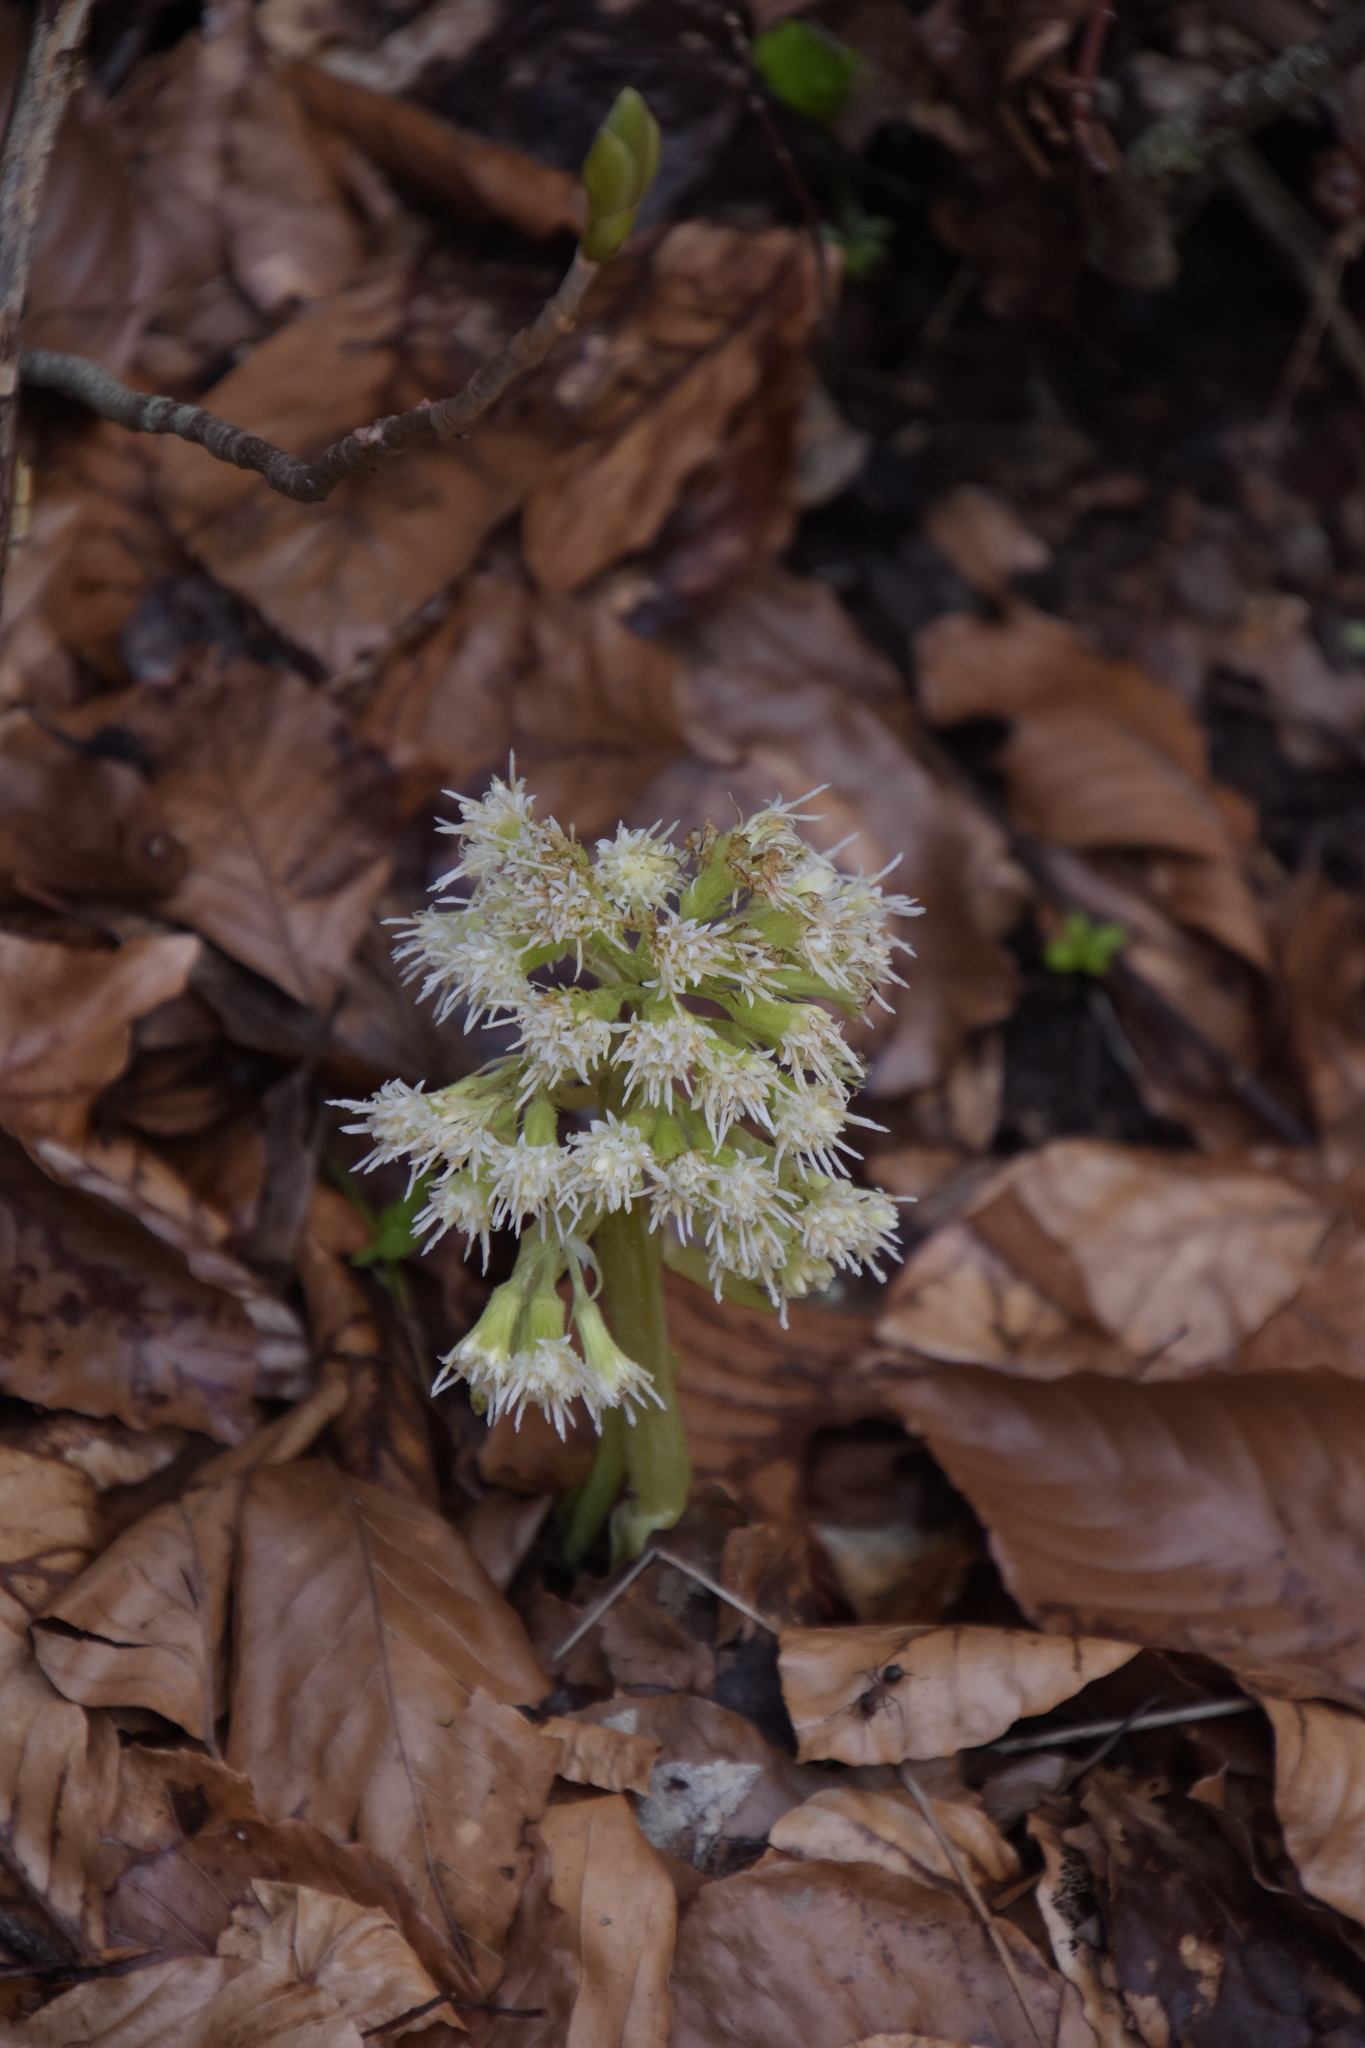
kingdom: Plantae
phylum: Tracheophyta
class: Magnoliopsida
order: Asterales
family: Asteraceae
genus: Petasites
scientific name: Petasites albus
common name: White butterbur
